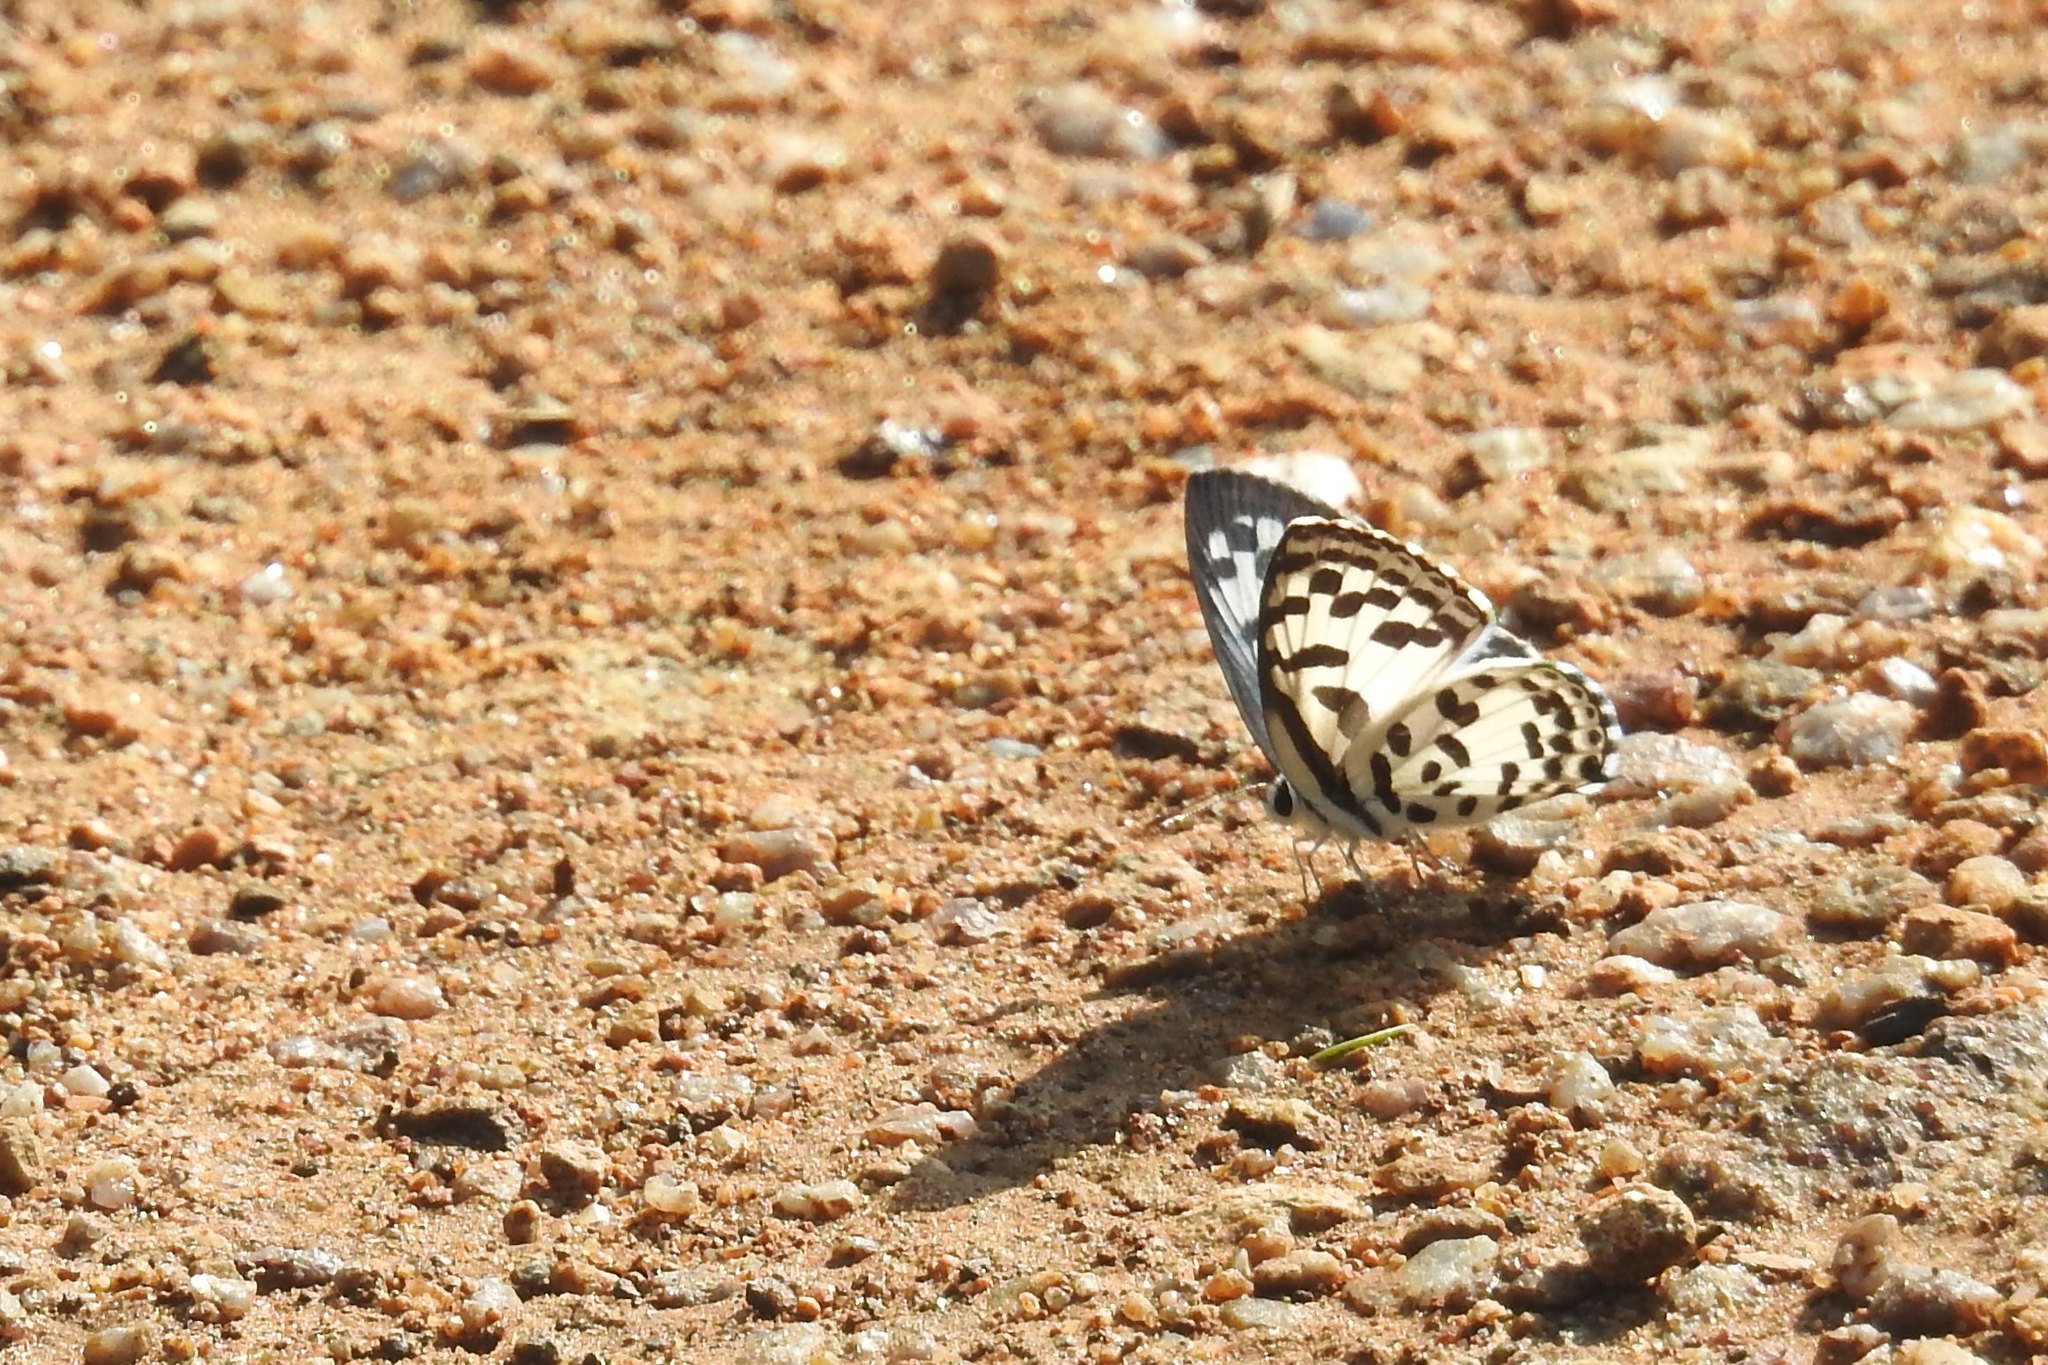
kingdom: Animalia
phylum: Arthropoda
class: Insecta
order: Lepidoptera
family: Lycaenidae
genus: Castalius
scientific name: Castalius rosimon
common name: Common pierrot
